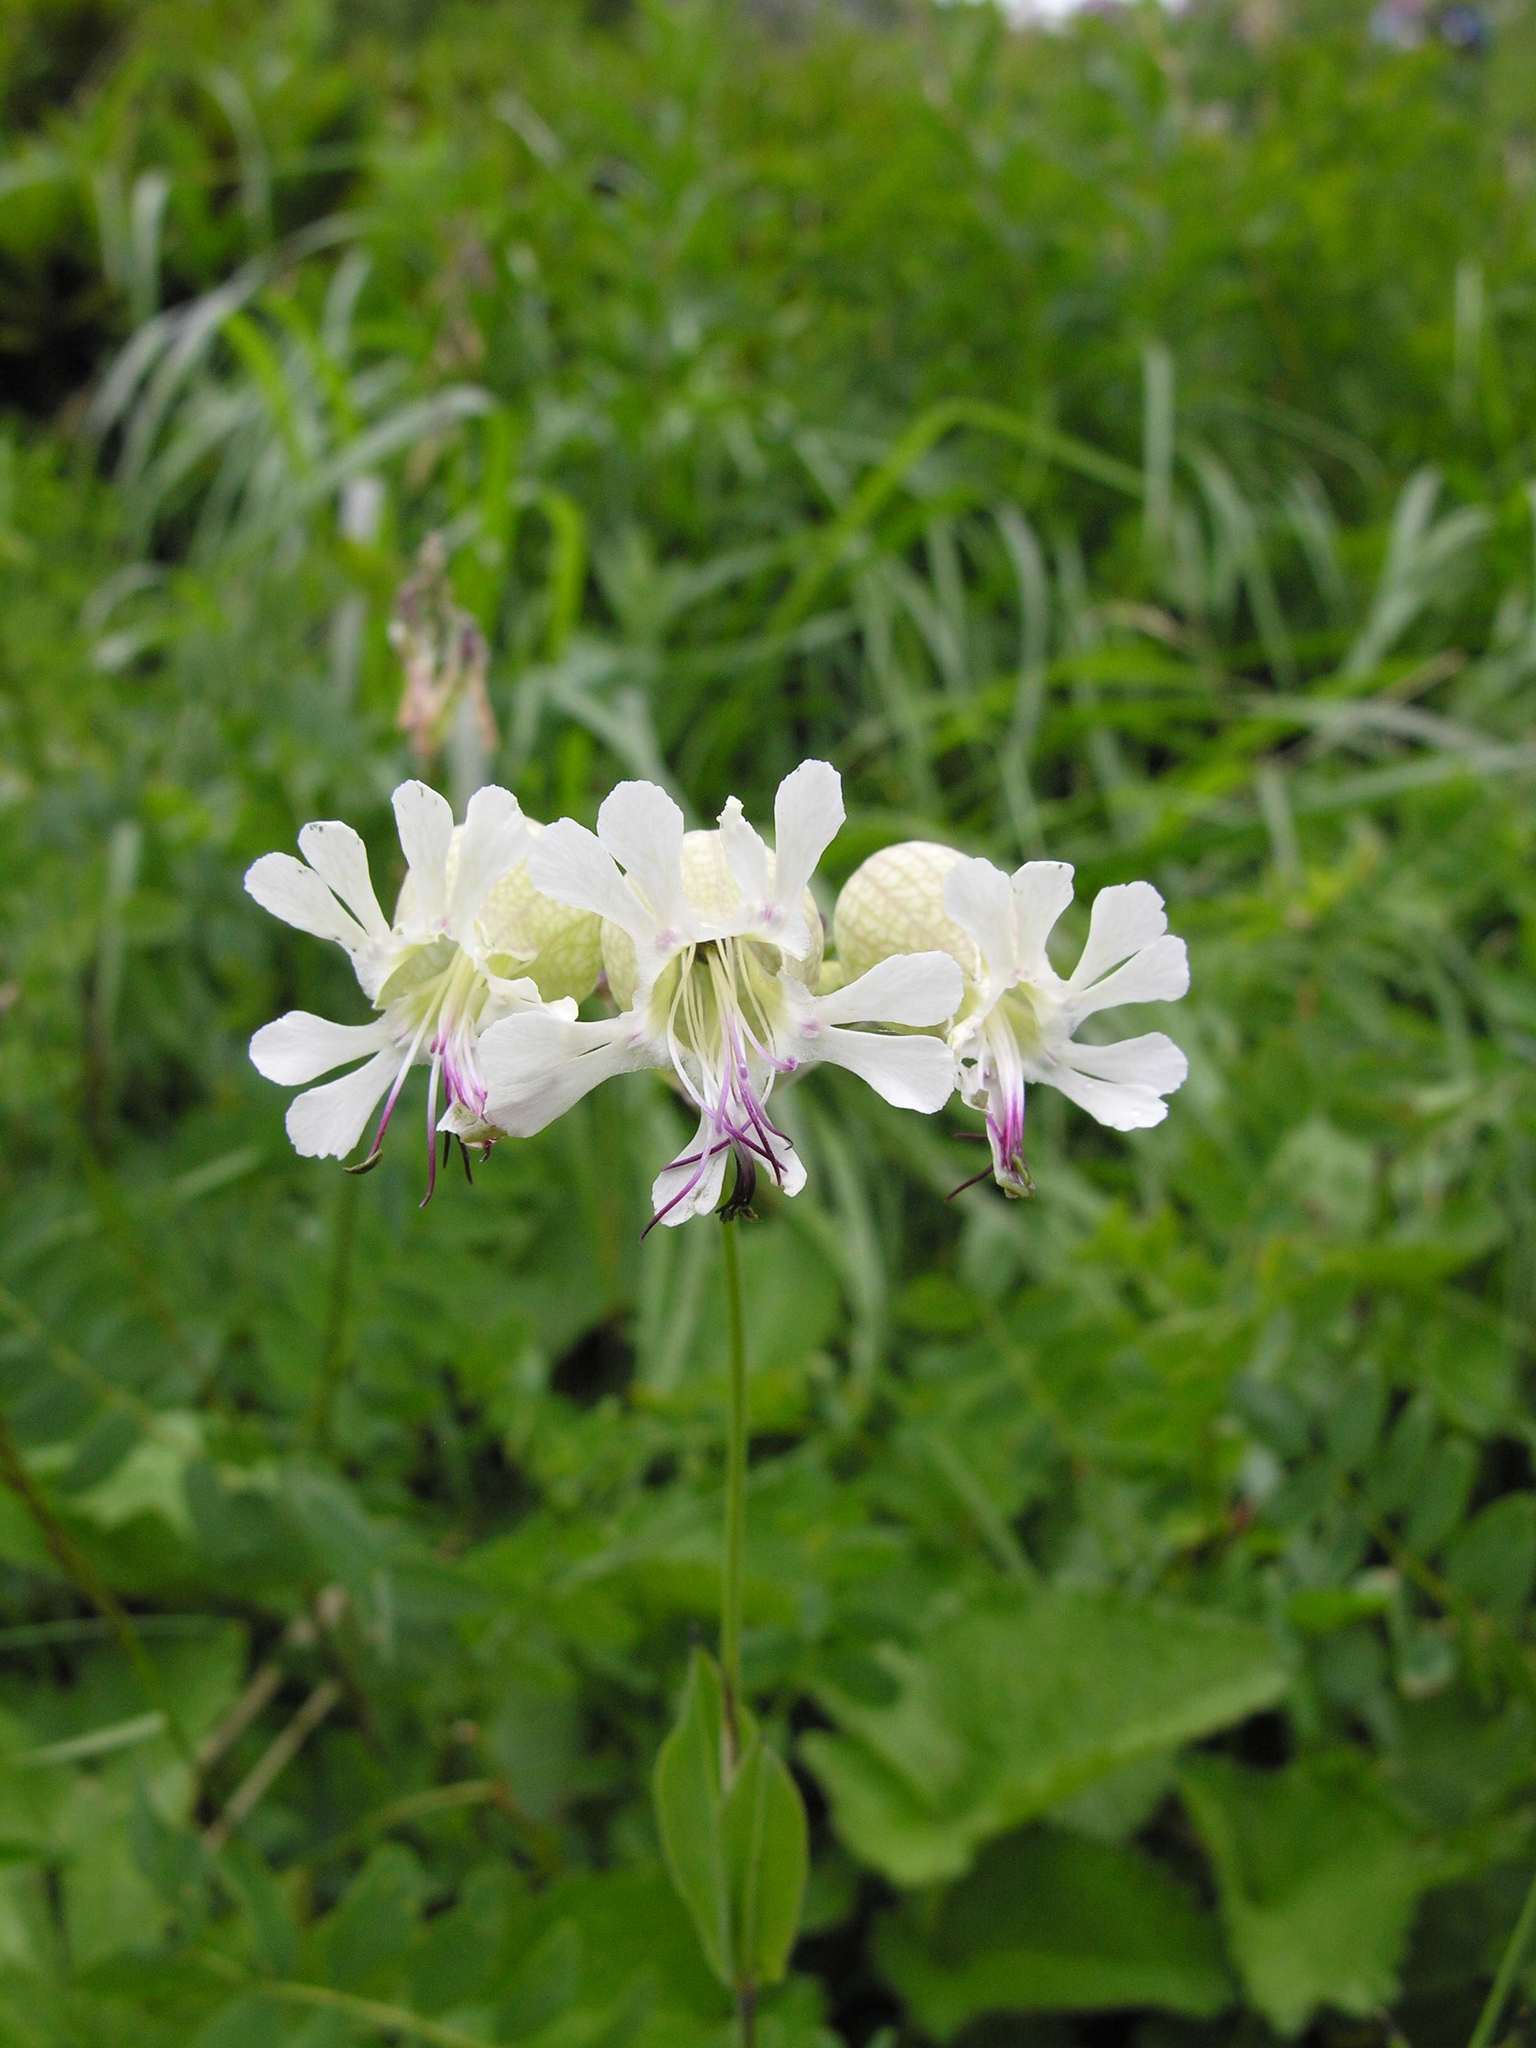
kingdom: Plantae
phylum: Tracheophyta
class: Magnoliopsida
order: Caryophyllales
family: Caryophyllaceae
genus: Silene
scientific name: Silene vulgaris
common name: Bladder campion
